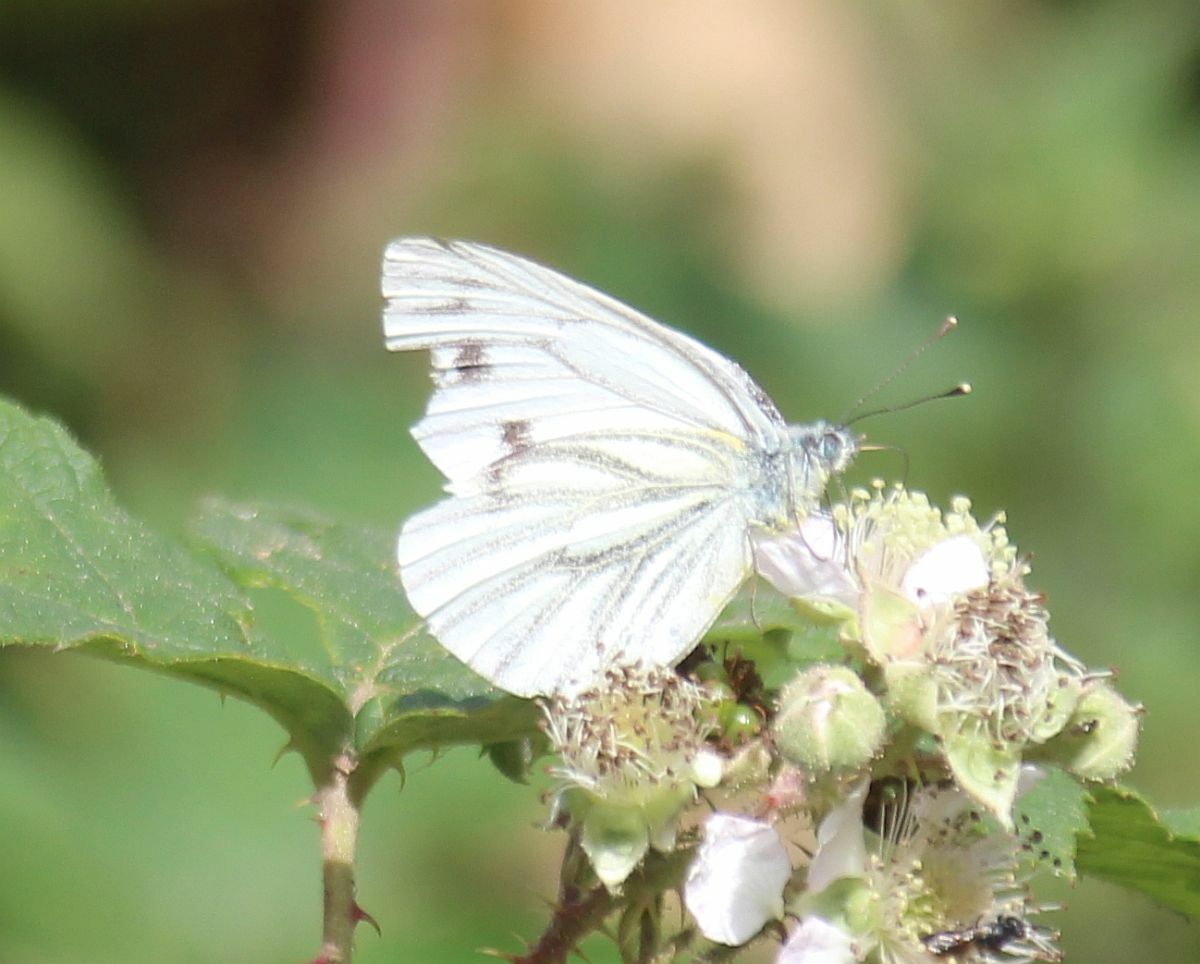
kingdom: Animalia
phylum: Arthropoda
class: Insecta
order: Lepidoptera
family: Pieridae
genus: Pieris
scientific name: Pieris napi
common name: Green-veined white
